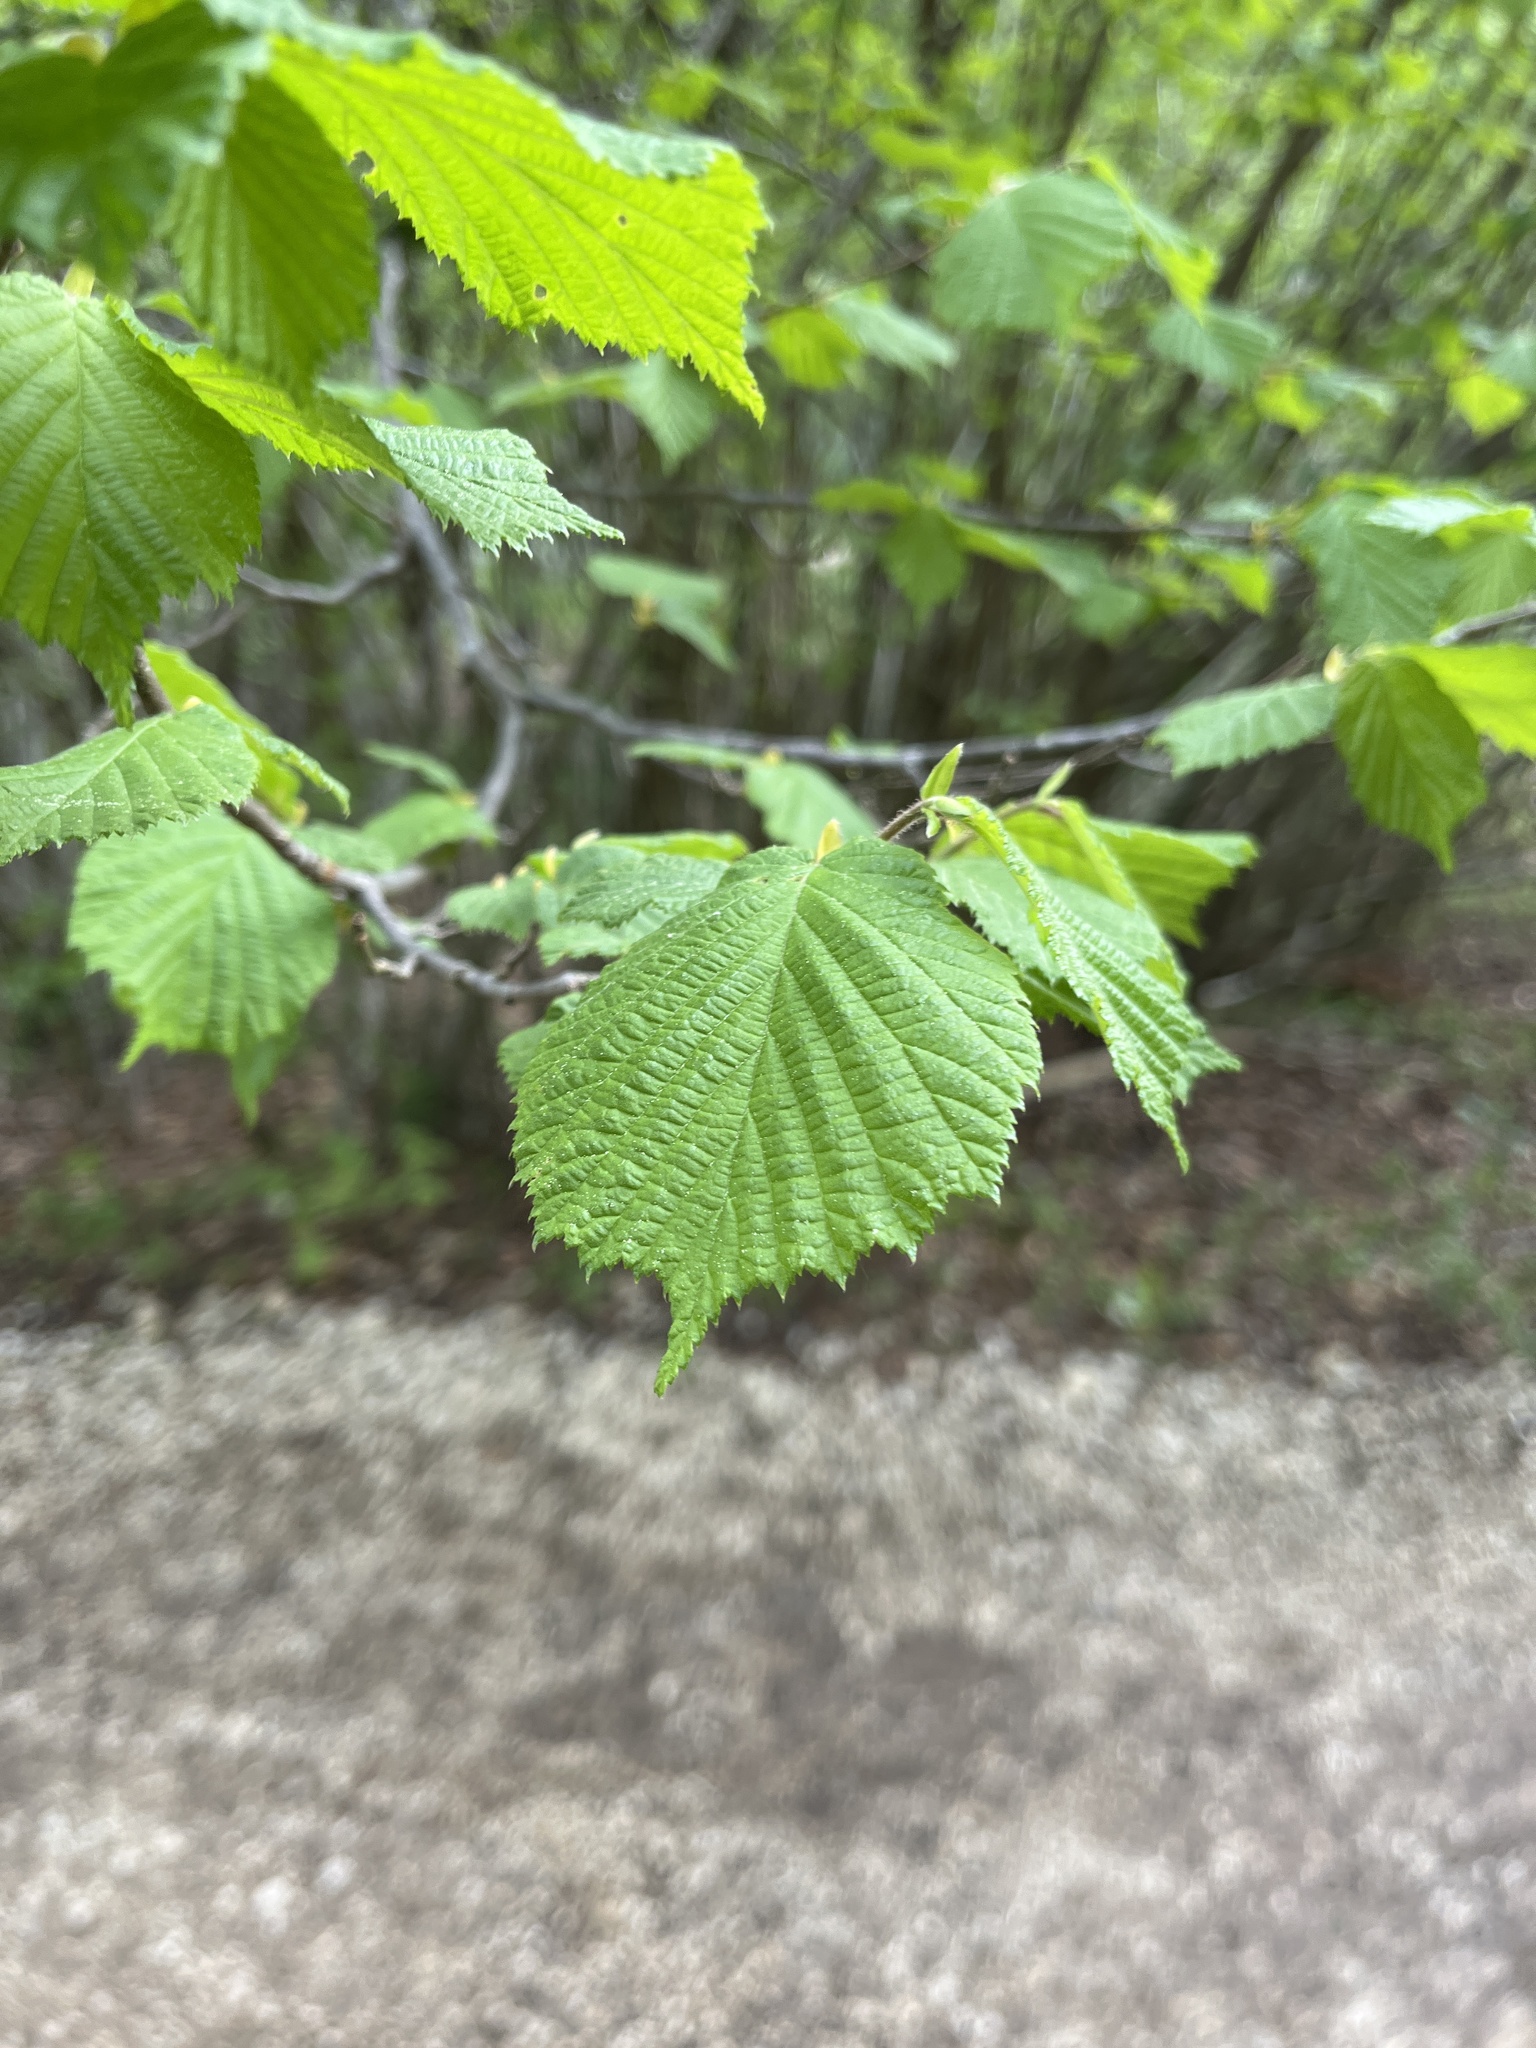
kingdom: Plantae
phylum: Tracheophyta
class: Magnoliopsida
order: Fagales
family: Betulaceae
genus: Corylus
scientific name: Corylus avellana
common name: European hazel
